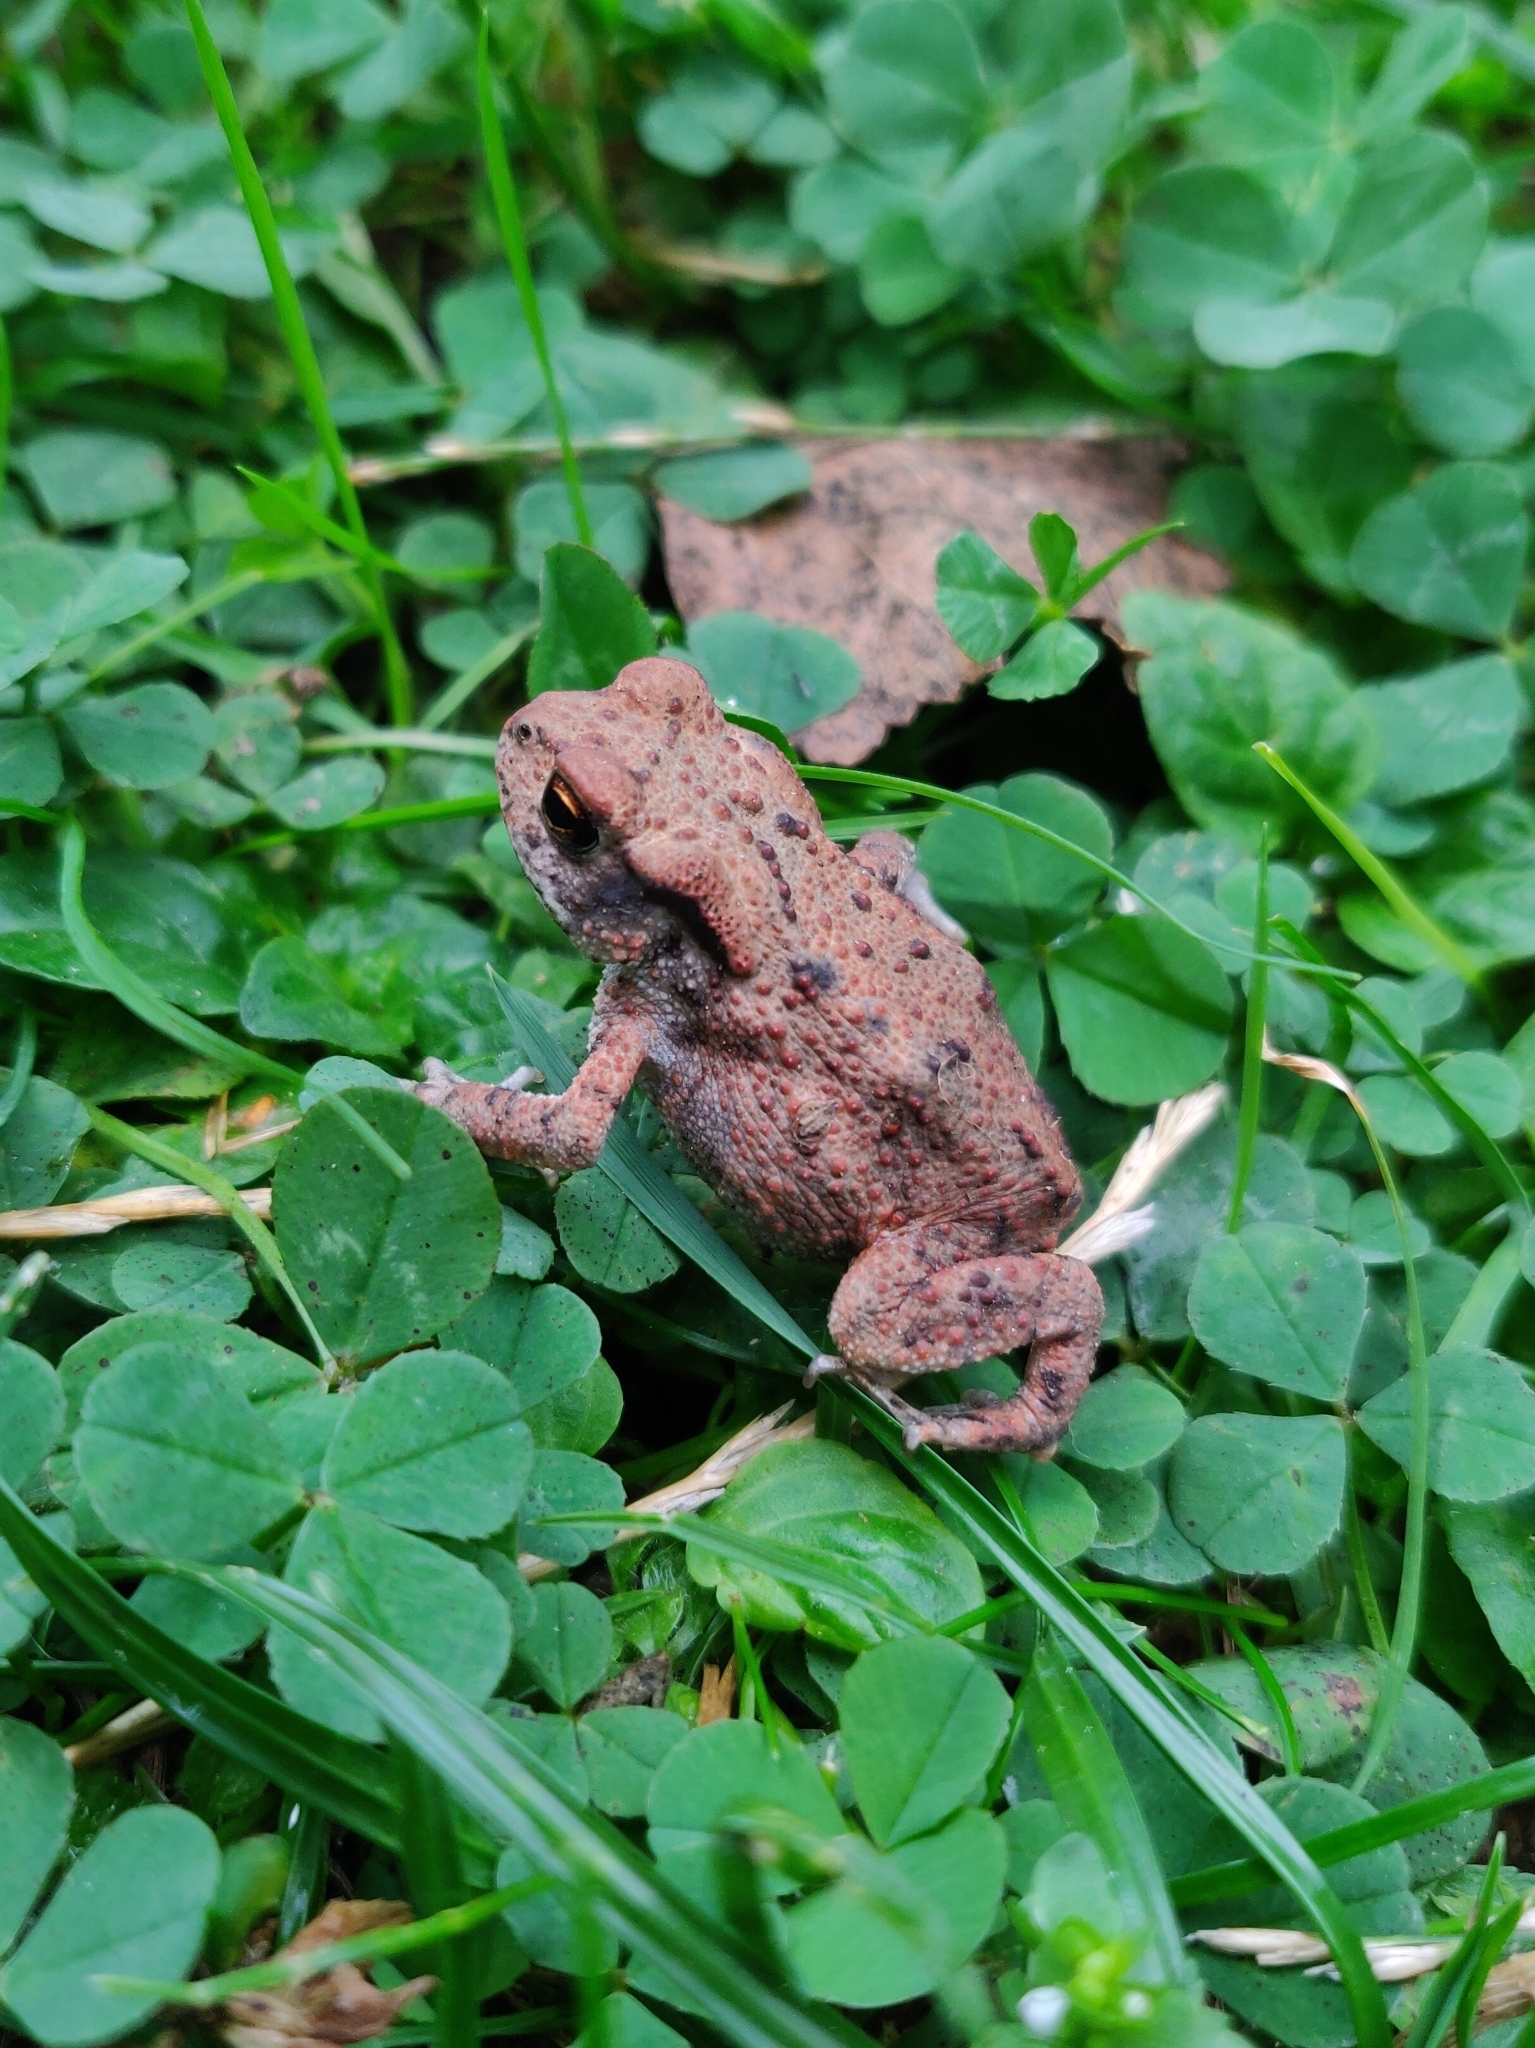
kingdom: Animalia
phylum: Chordata
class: Amphibia
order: Anura
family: Bufonidae
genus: Bufo
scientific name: Bufo bufo
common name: Common toad
